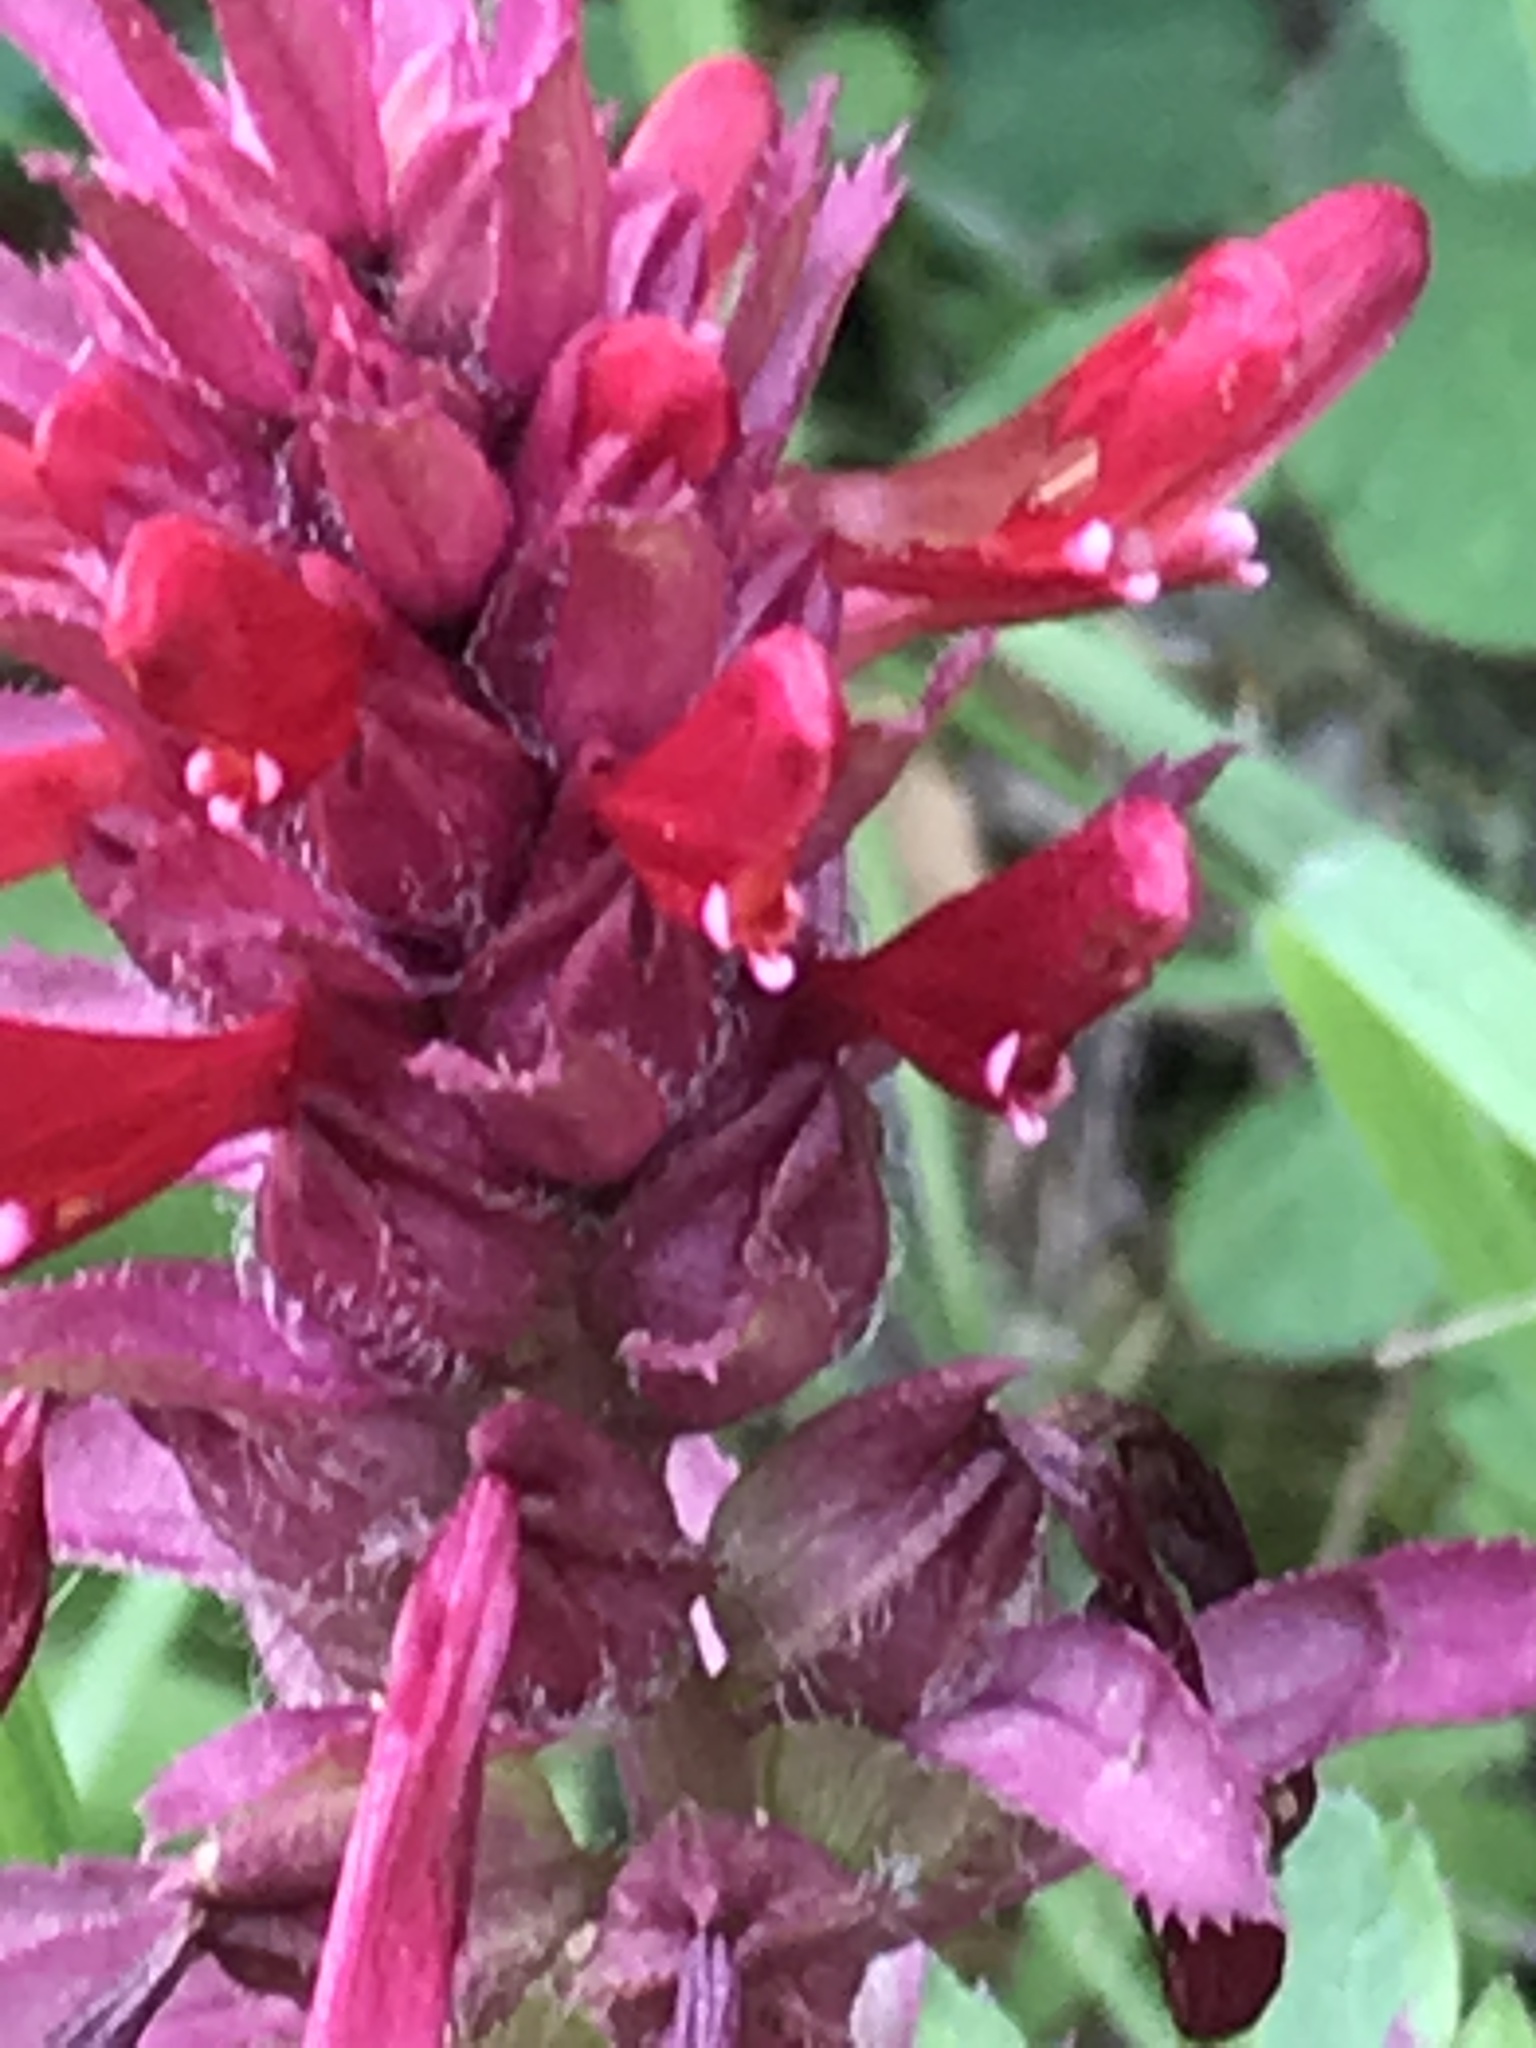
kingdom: Plantae
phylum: Tracheophyta
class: Magnoliopsida
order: Lamiales
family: Orobanchaceae
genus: Pedicularis
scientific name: Pedicularis densiflora
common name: Indian warrior
